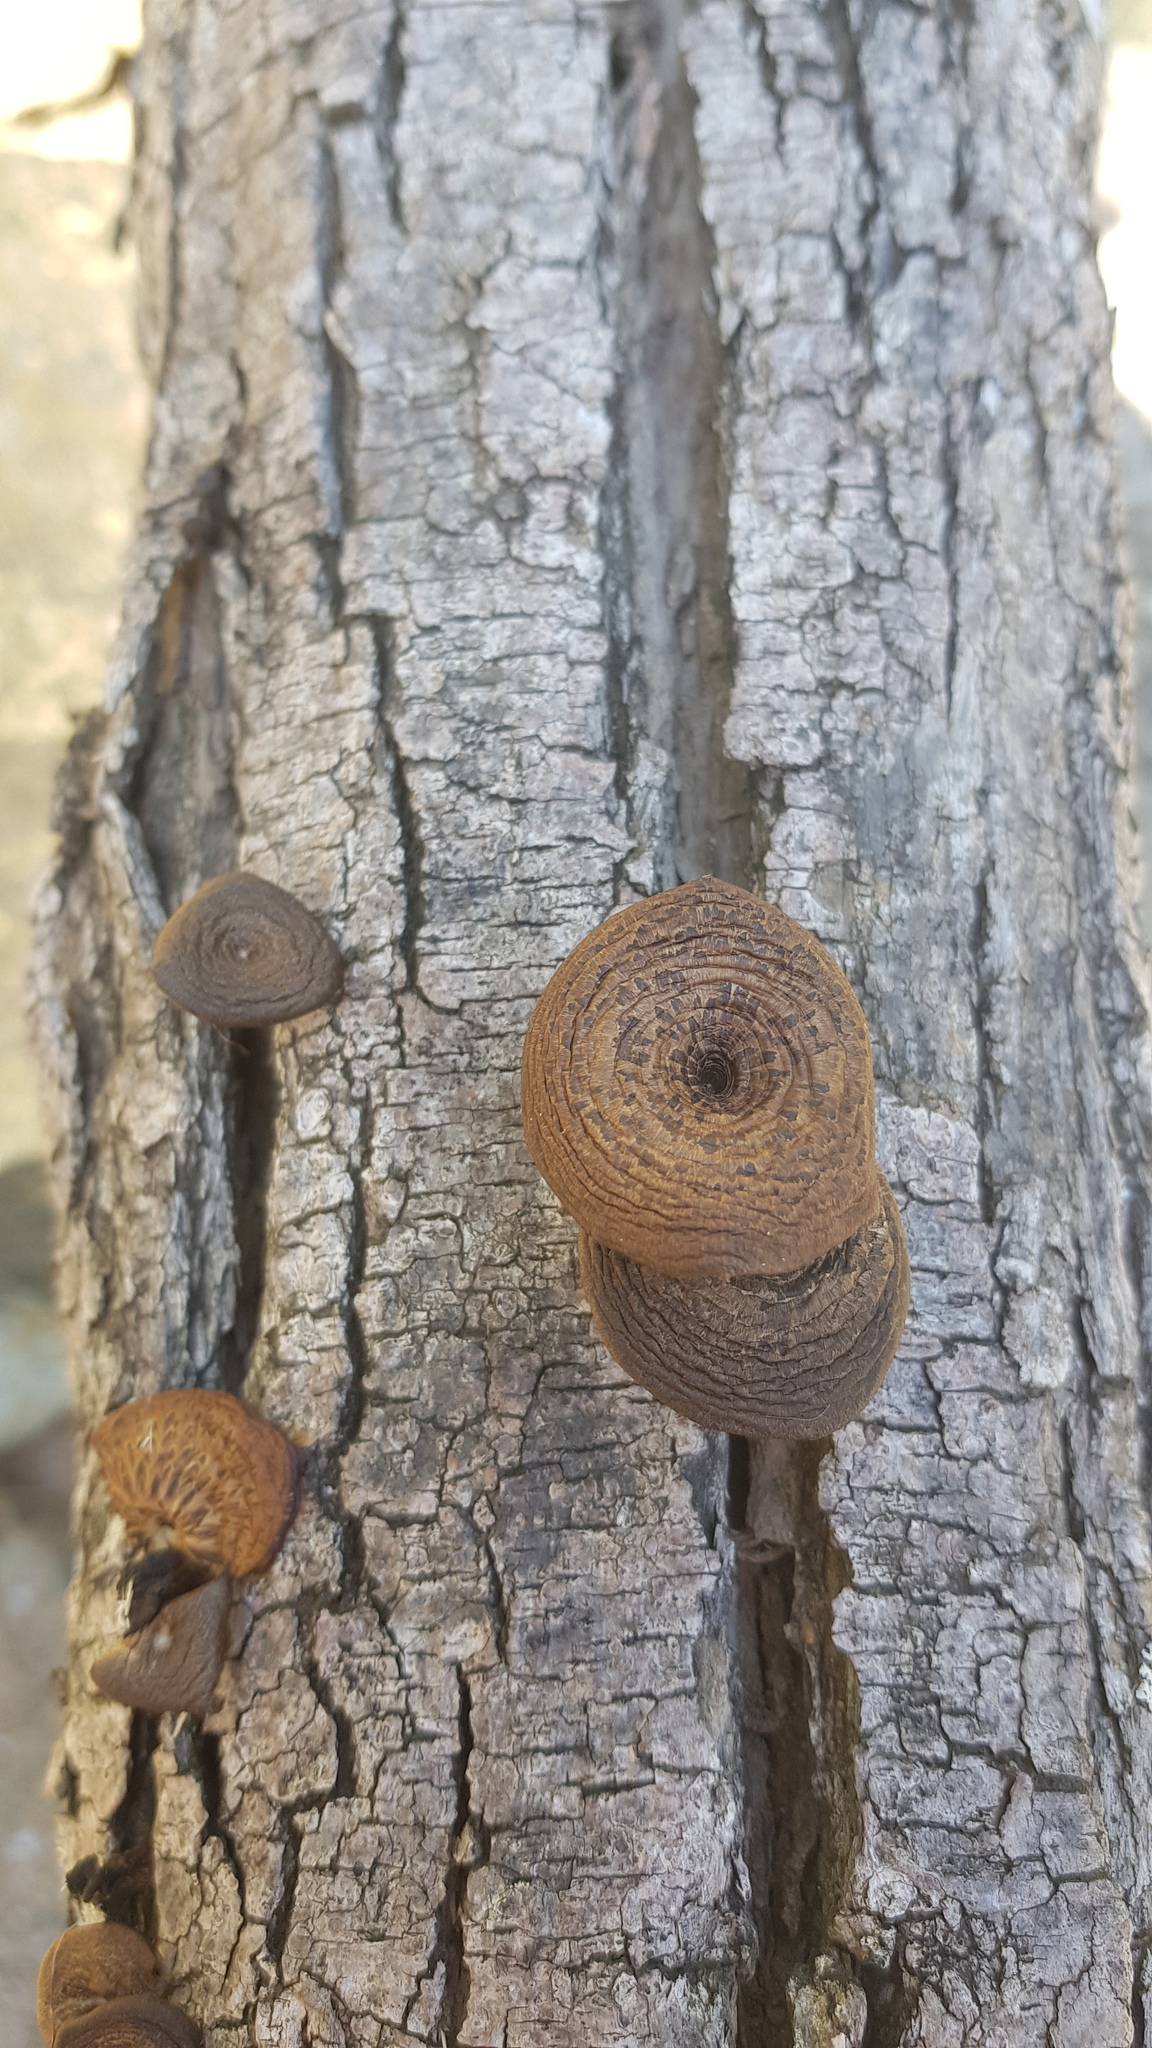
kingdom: Fungi
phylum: Basidiomycota
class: Agaricomycetes
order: Polyporales
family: Polyporaceae
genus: Lentinus
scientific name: Lentinus arcularius
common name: Spring polypore
